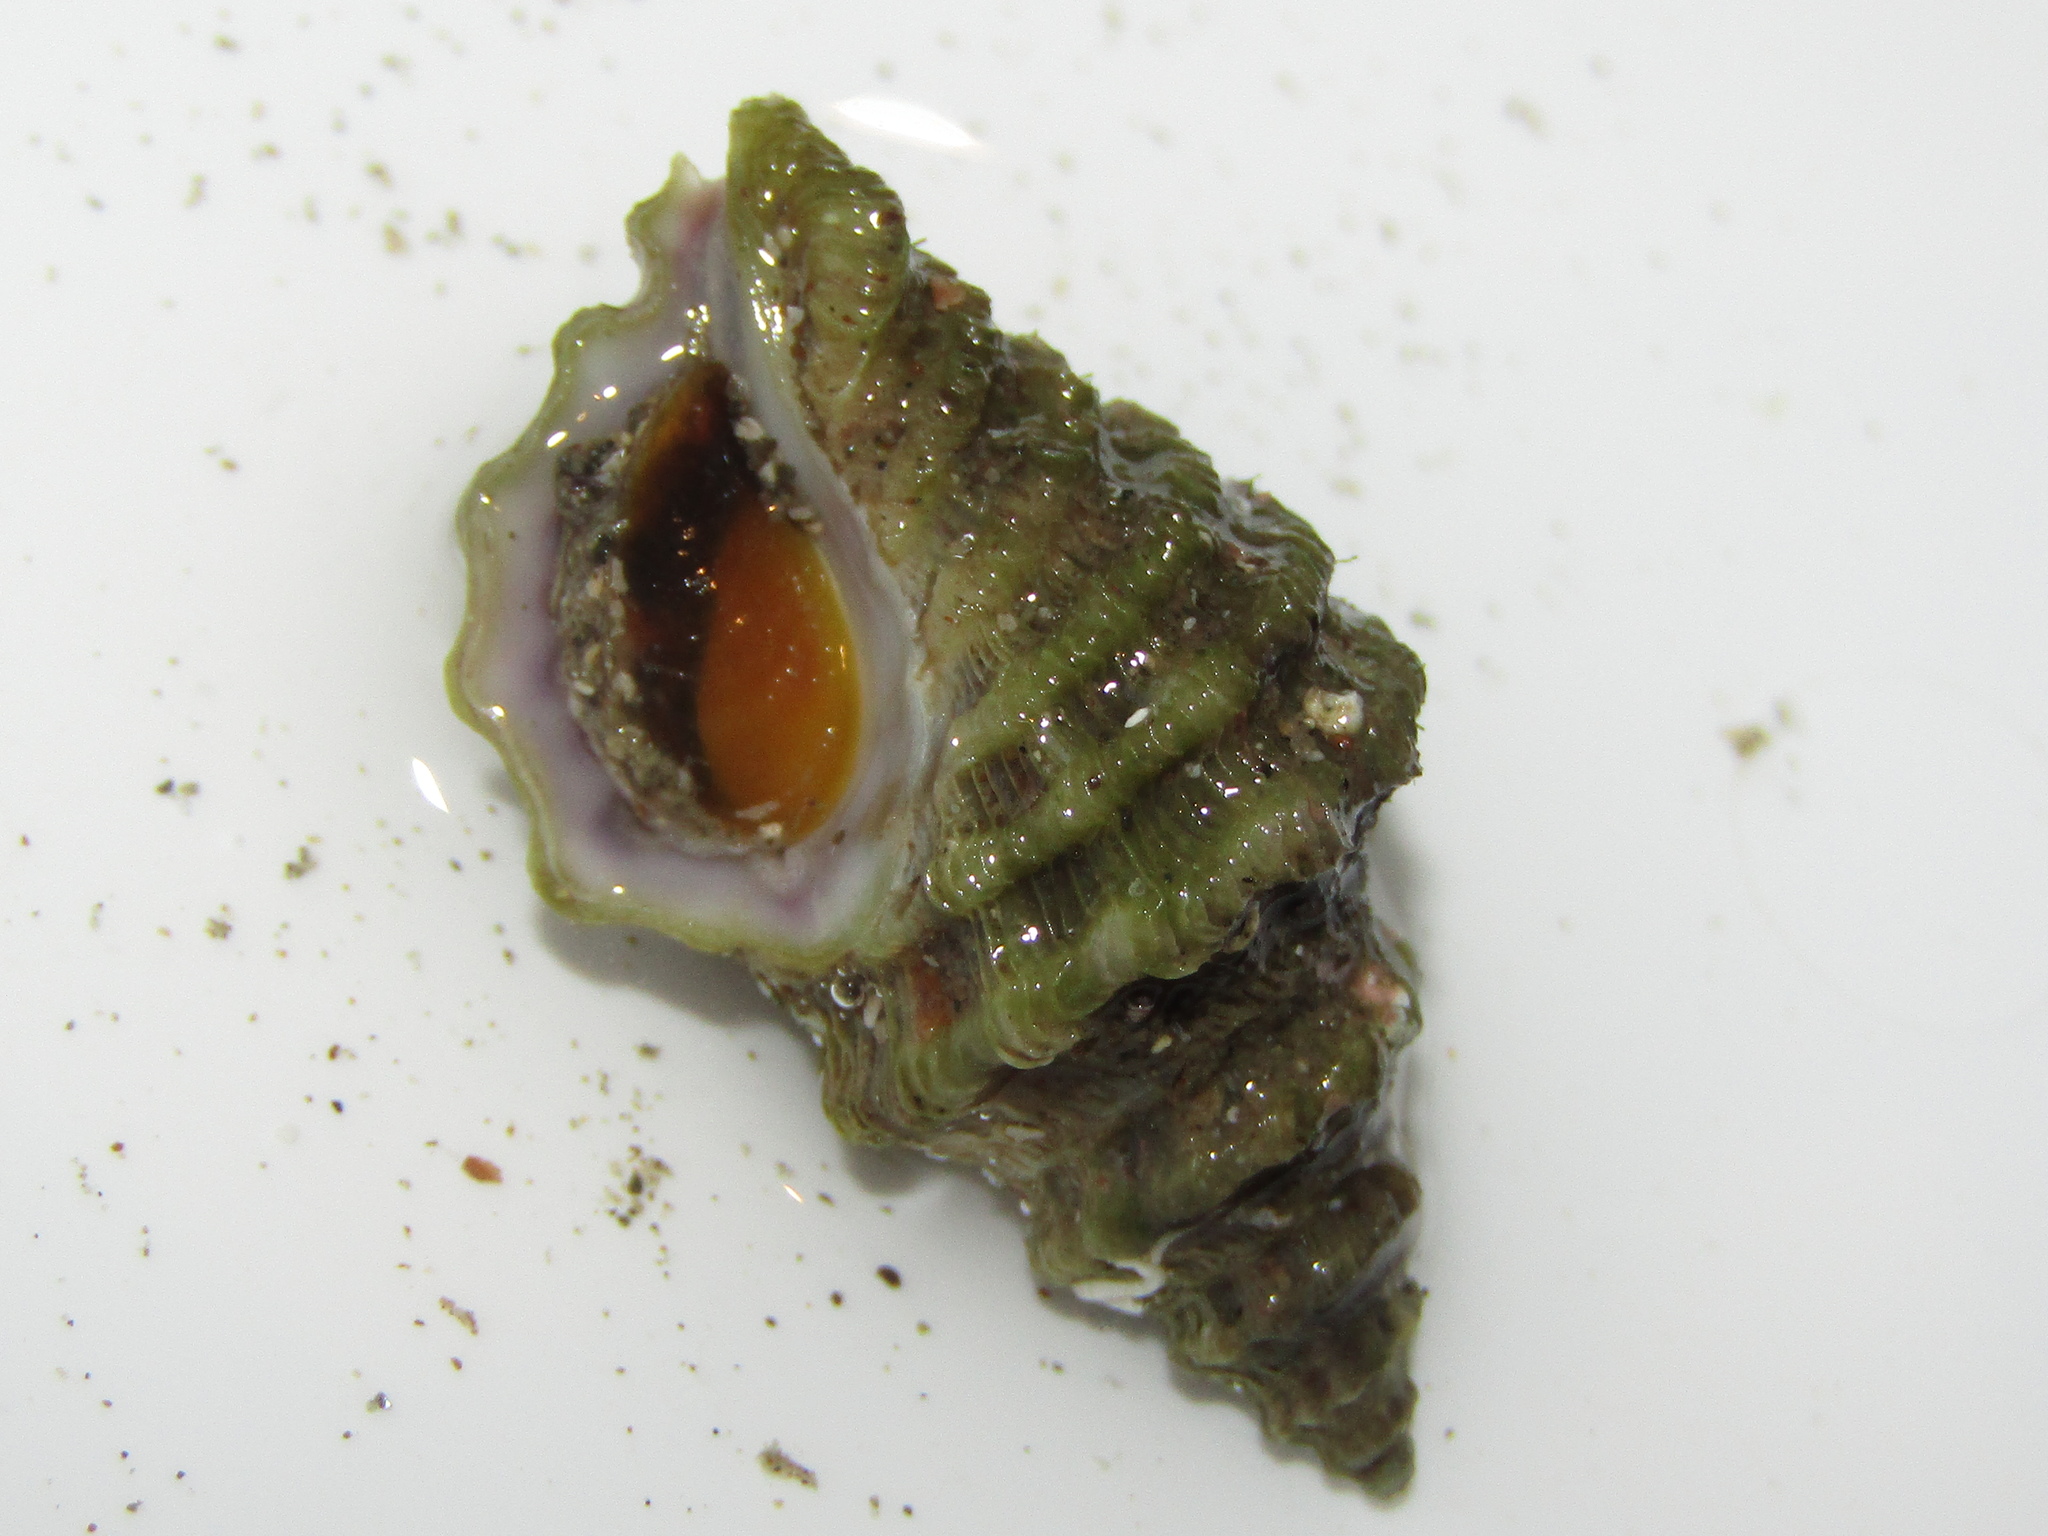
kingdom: Animalia
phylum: Mollusca
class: Gastropoda
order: Neogastropoda
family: Muricidae
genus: Paratrophon
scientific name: Paratrophon quoyi
